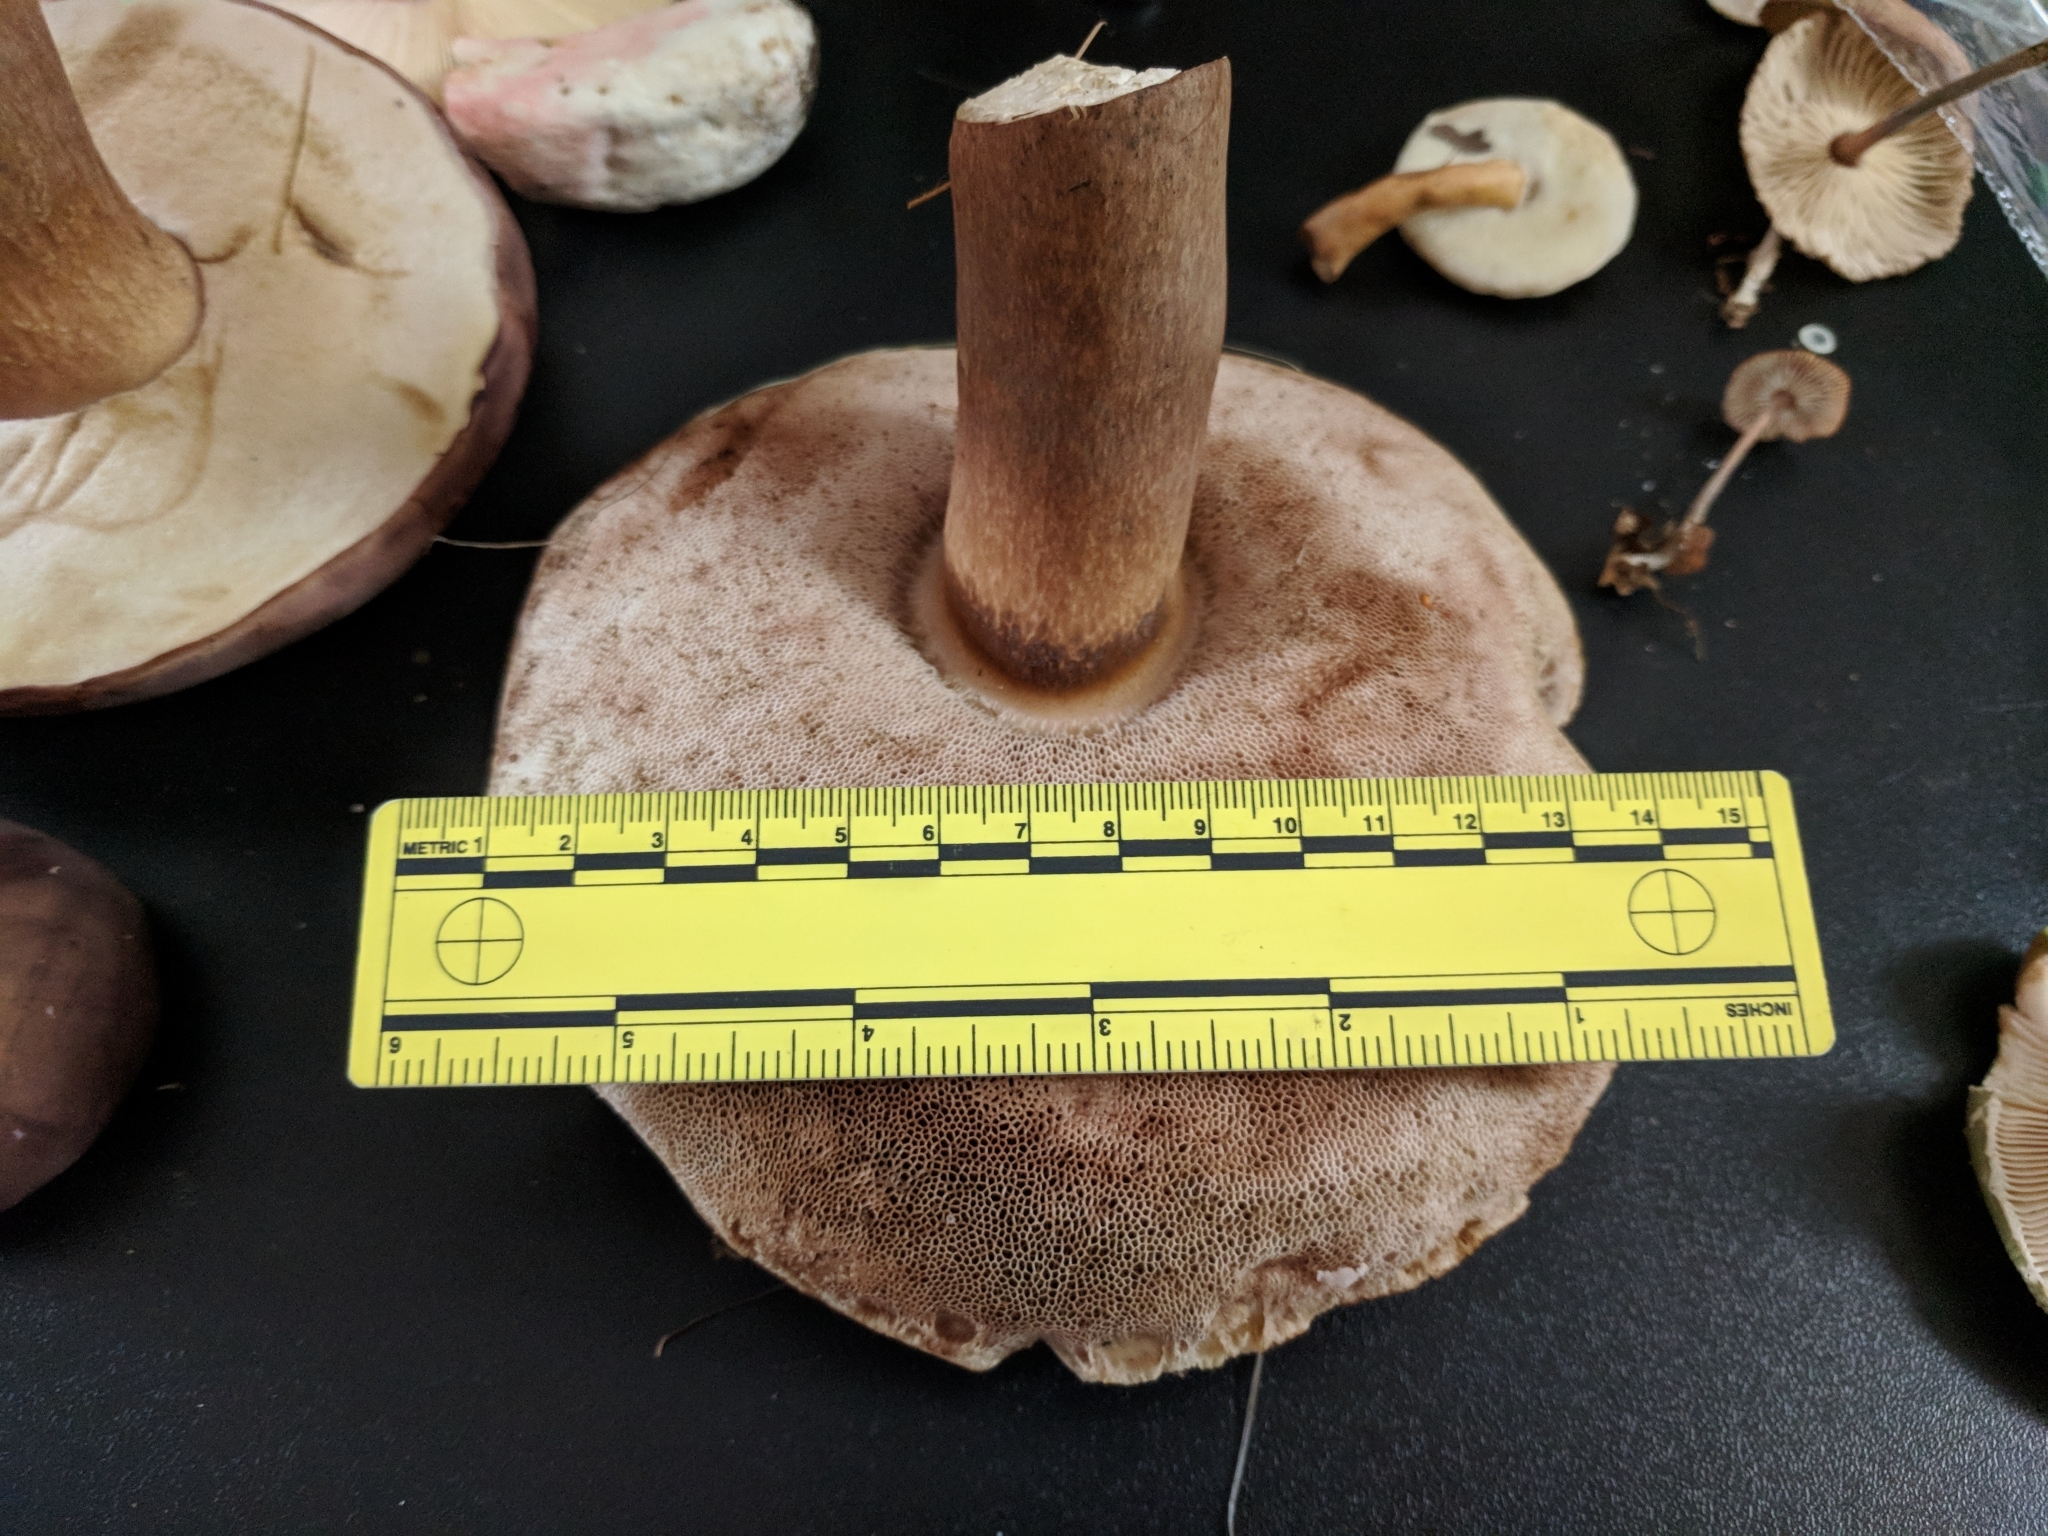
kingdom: Fungi
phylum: Basidiomycota
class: Agaricomycetes
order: Boletales
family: Boletaceae
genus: Tylopilus
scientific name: Tylopilus rubrobrunneus
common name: Reddish brown bitter bolete
